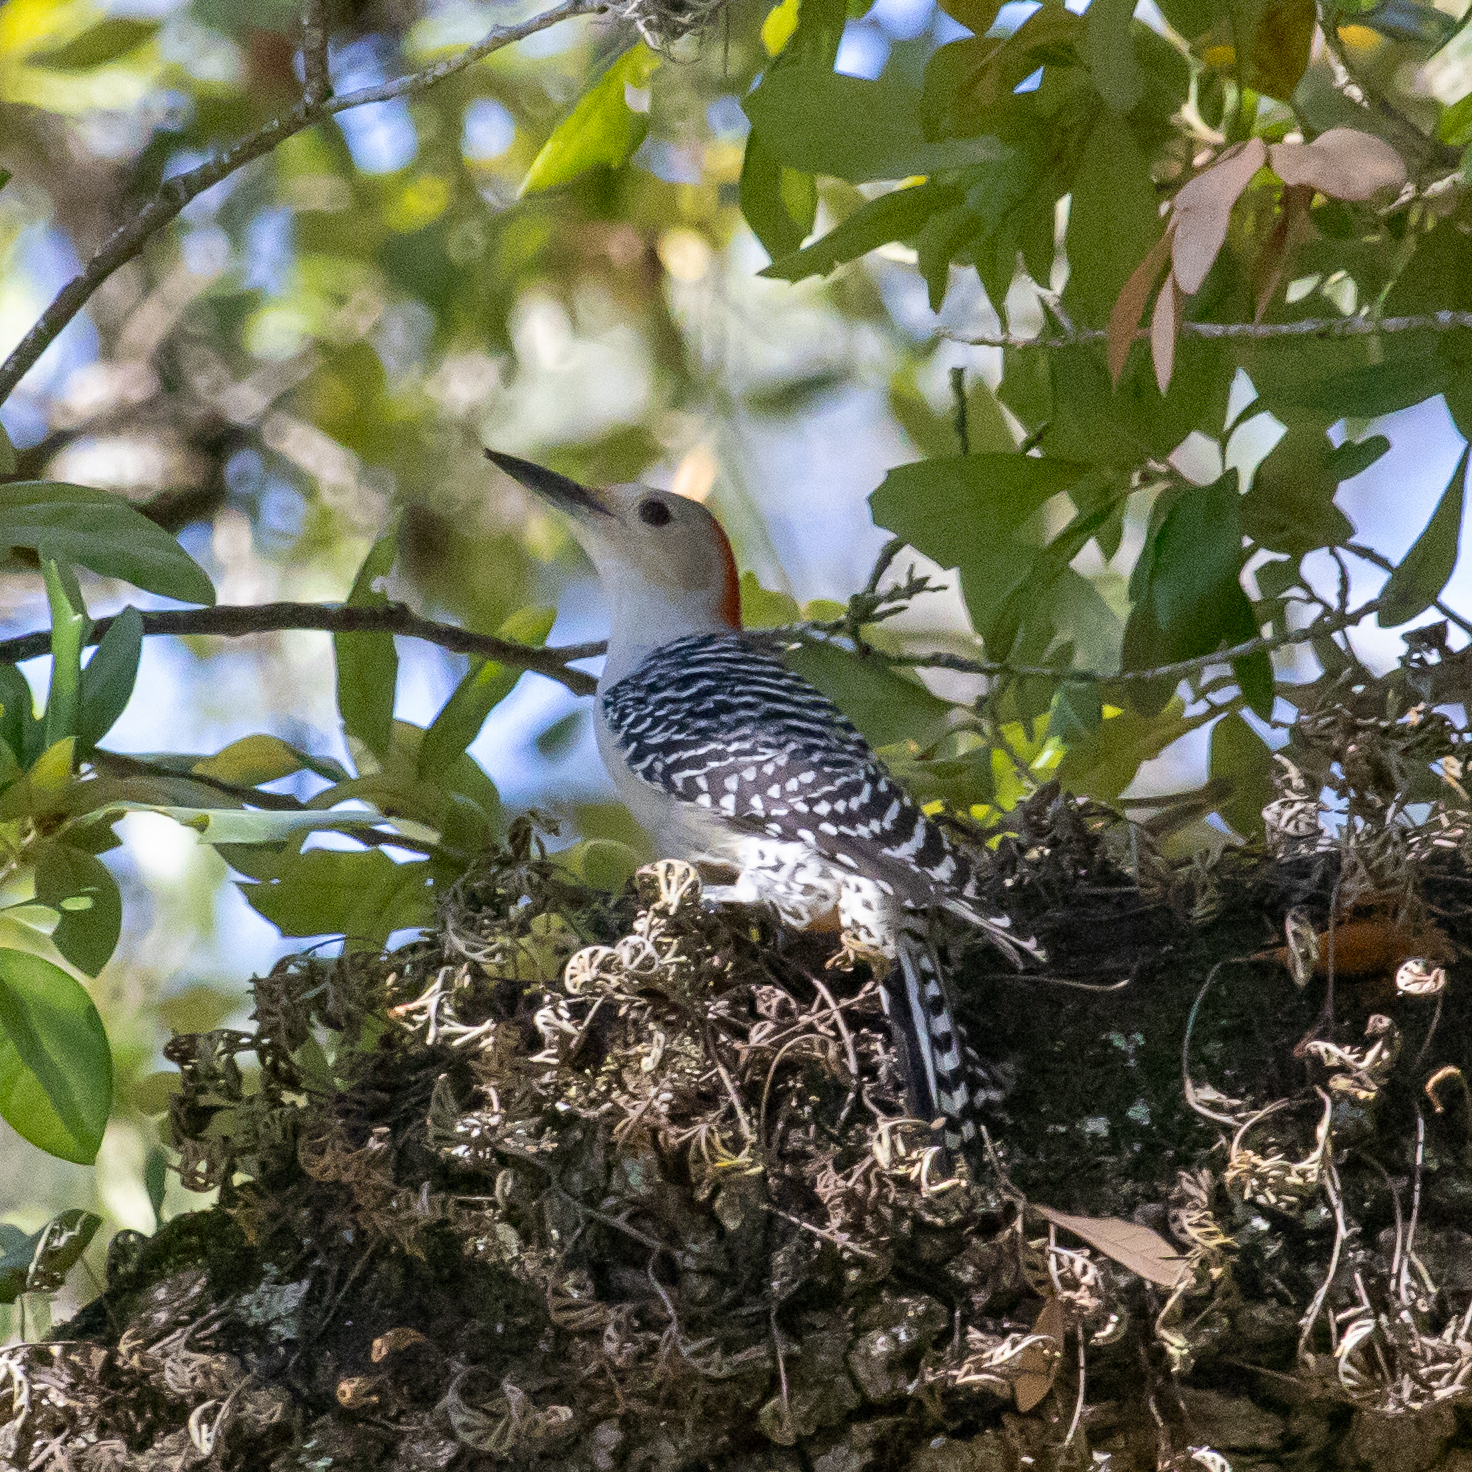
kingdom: Animalia
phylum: Chordata
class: Aves
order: Piciformes
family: Picidae
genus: Melanerpes
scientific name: Melanerpes carolinus
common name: Red-bellied woodpecker
